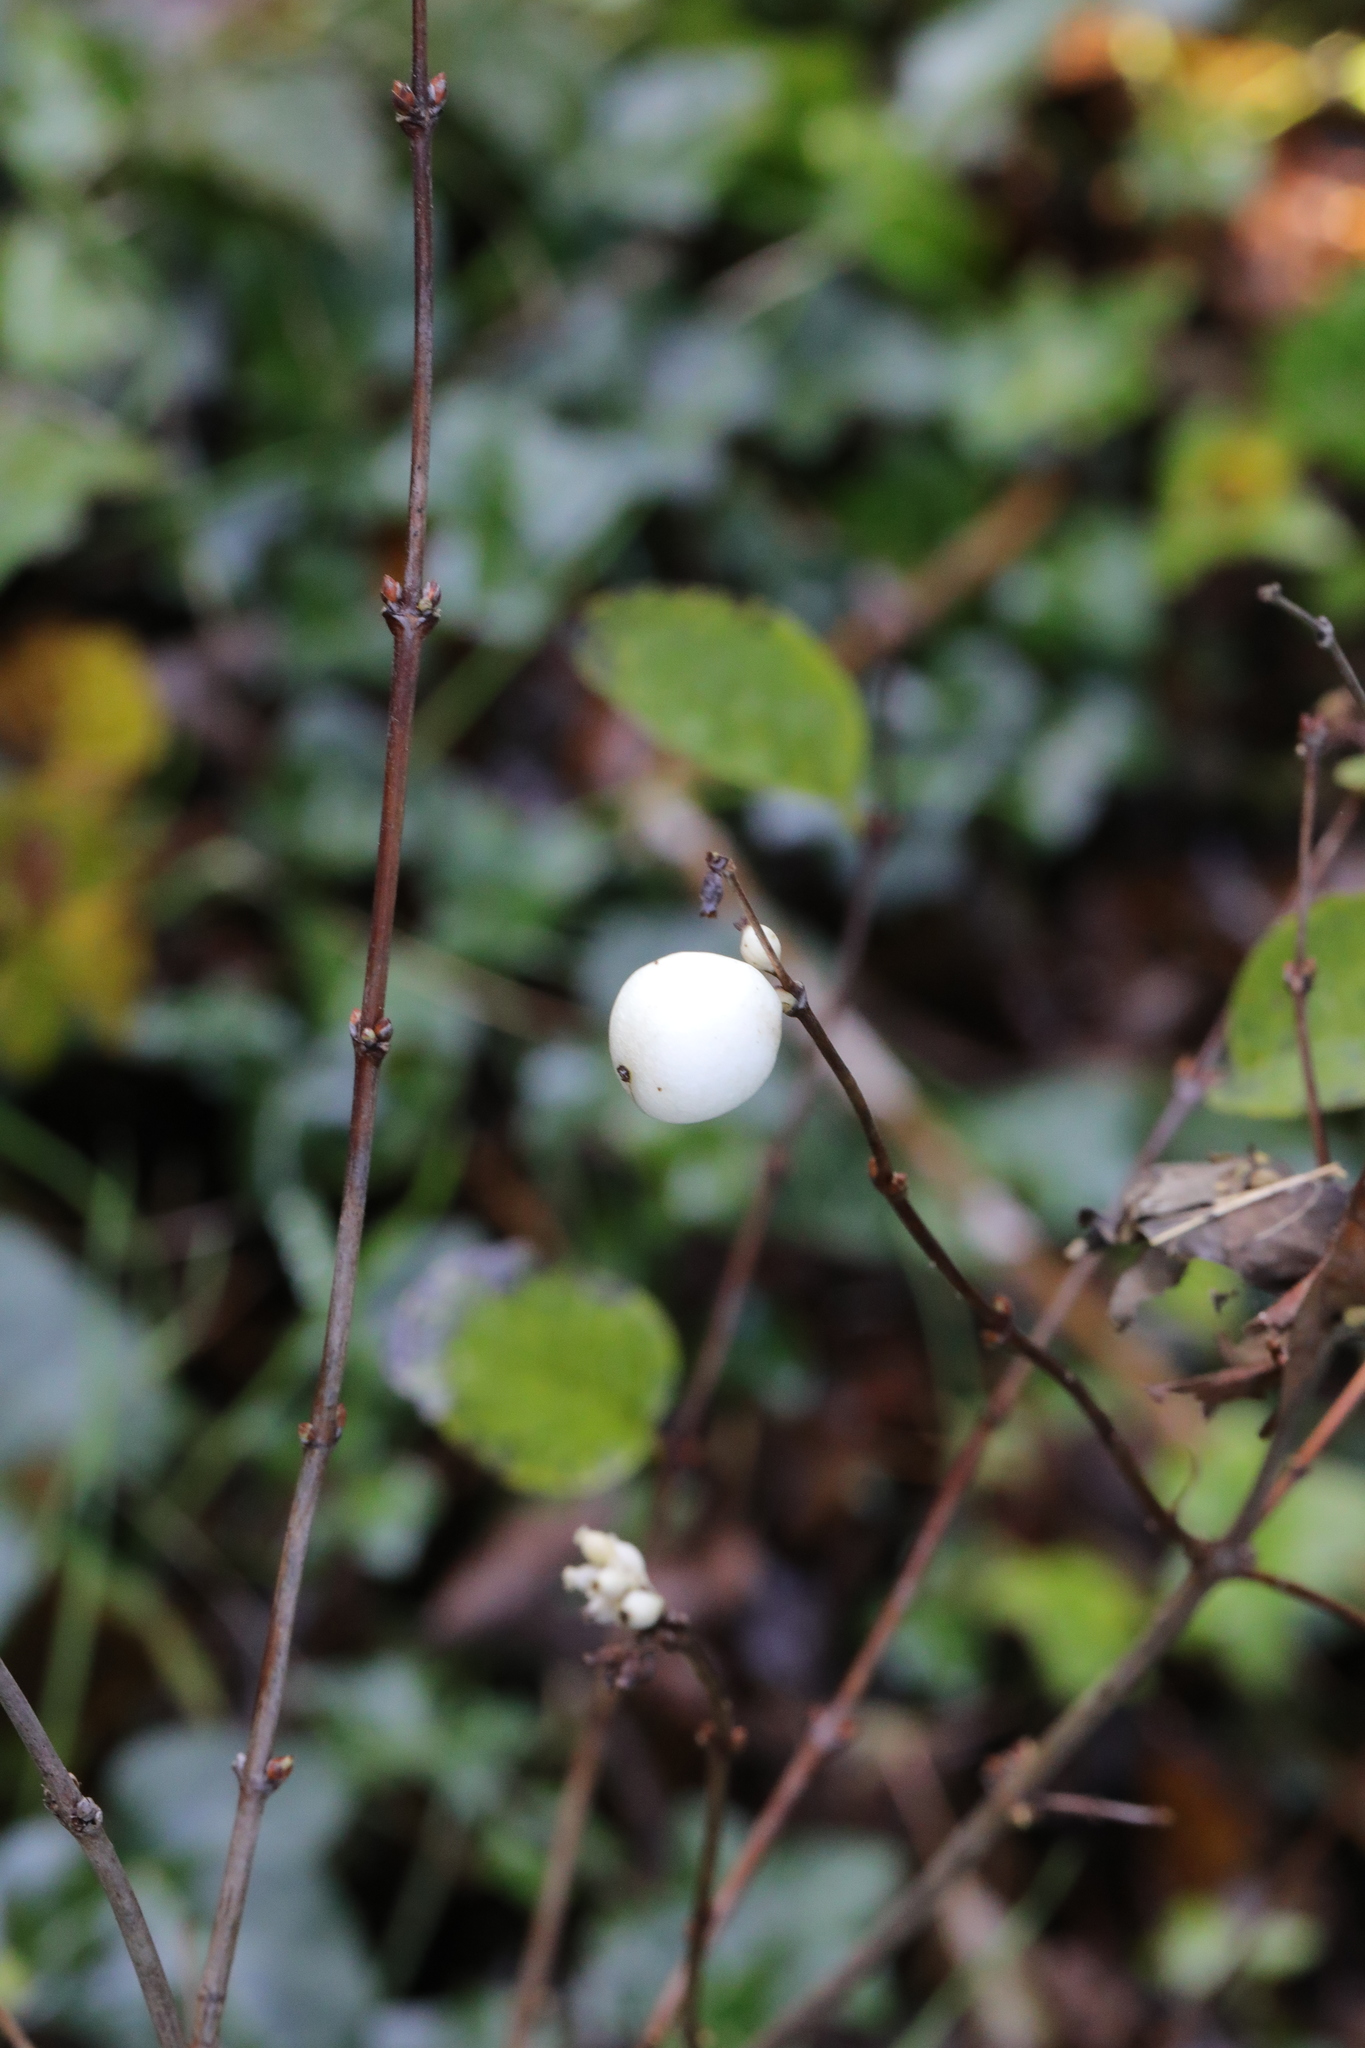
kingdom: Plantae
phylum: Tracheophyta
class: Magnoliopsida
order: Dipsacales
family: Caprifoliaceae
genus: Symphoricarpos
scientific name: Symphoricarpos albus
